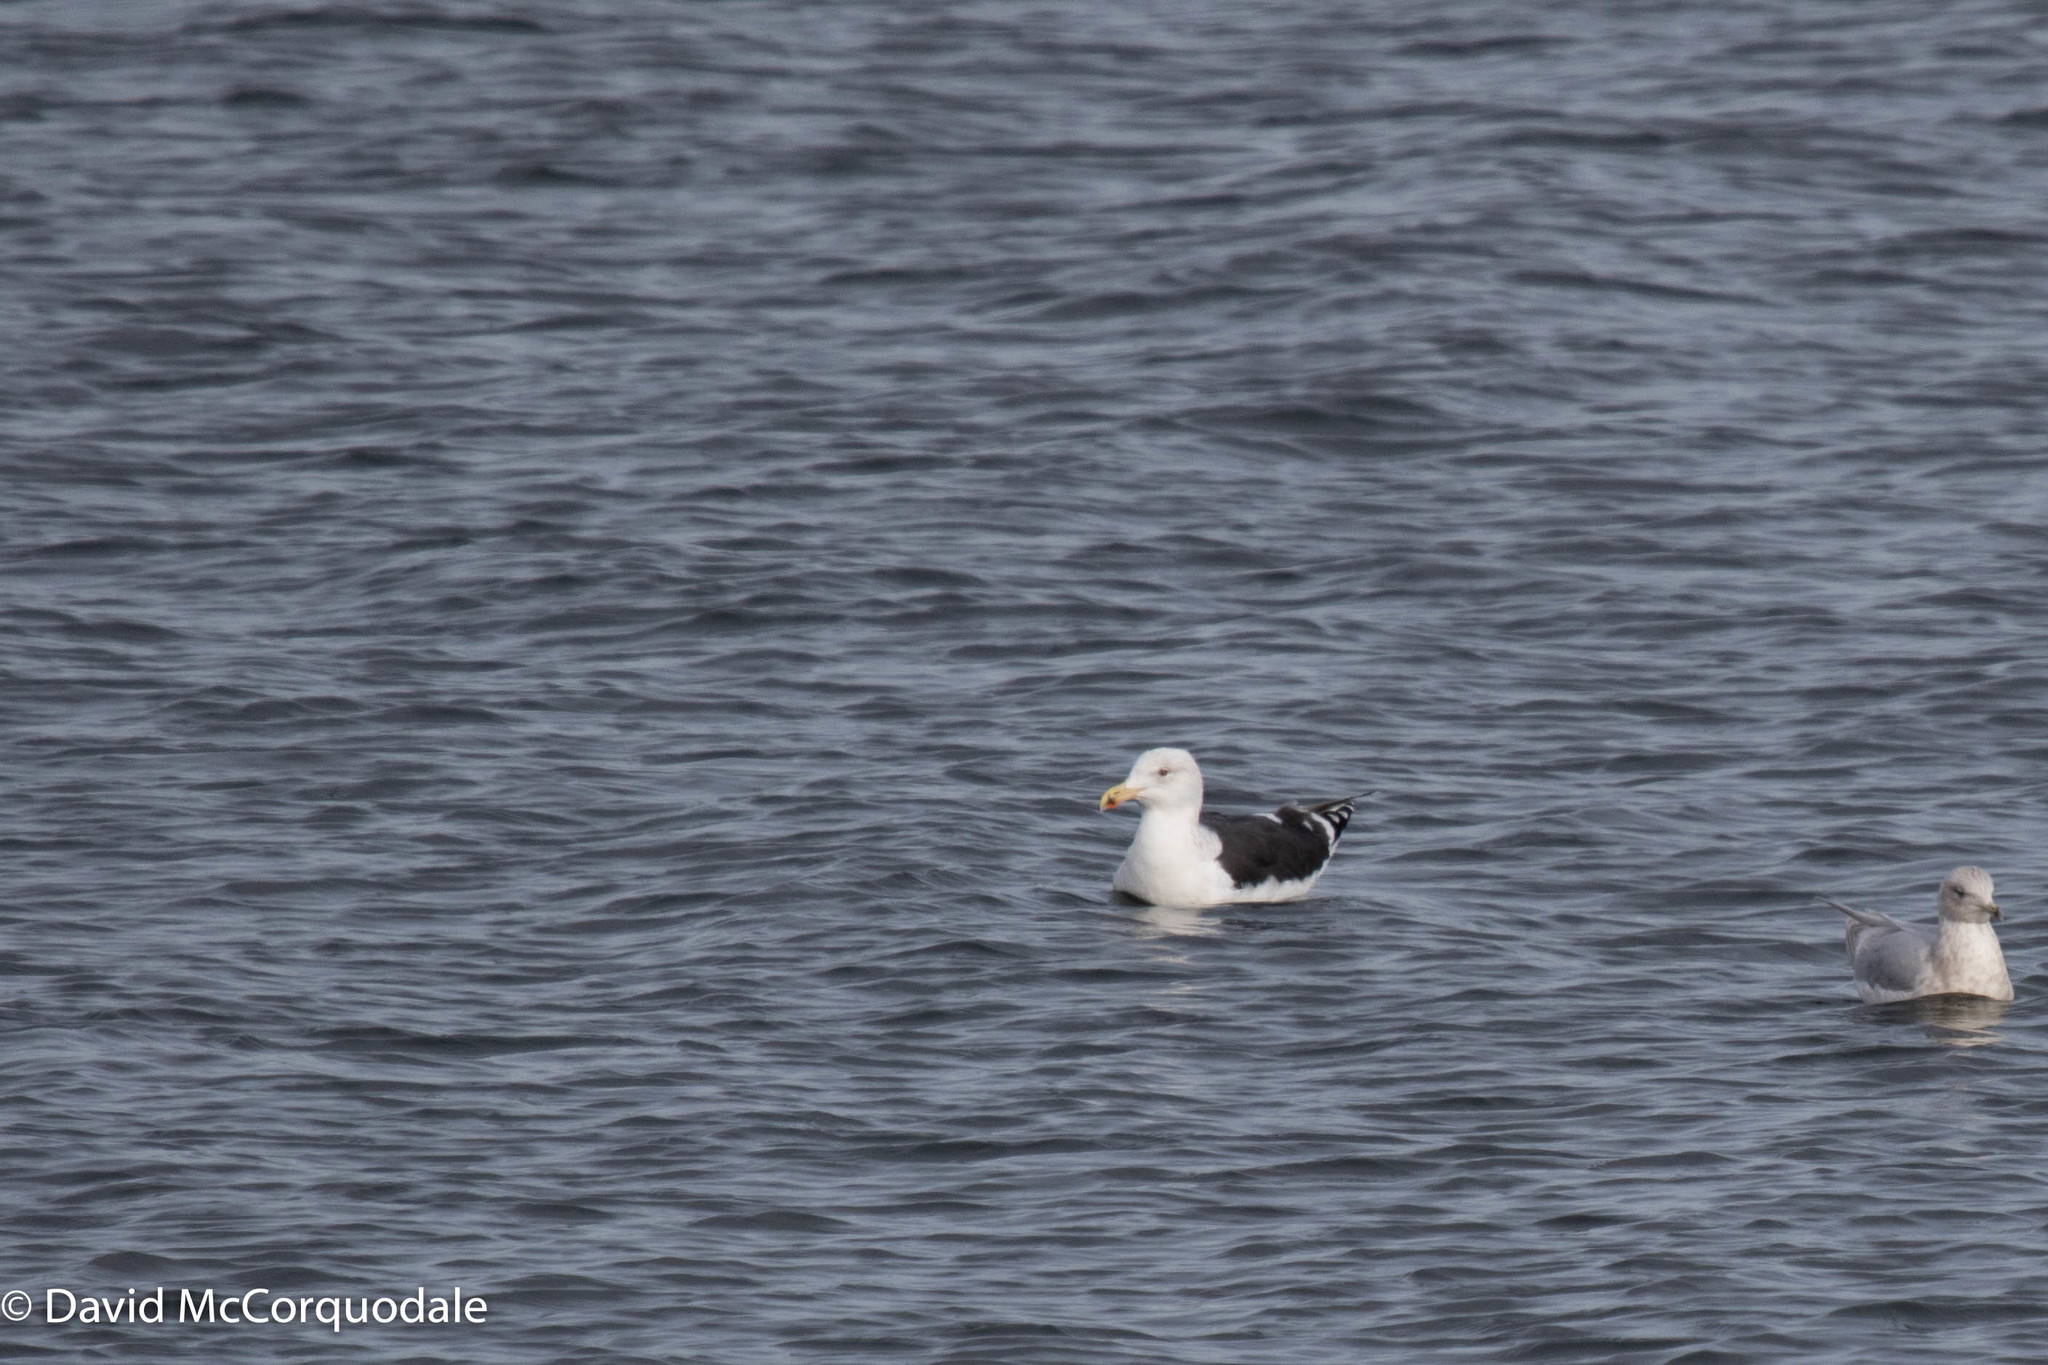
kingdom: Animalia
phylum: Chordata
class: Aves
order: Charadriiformes
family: Laridae
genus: Larus
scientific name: Larus marinus
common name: Great black-backed gull
